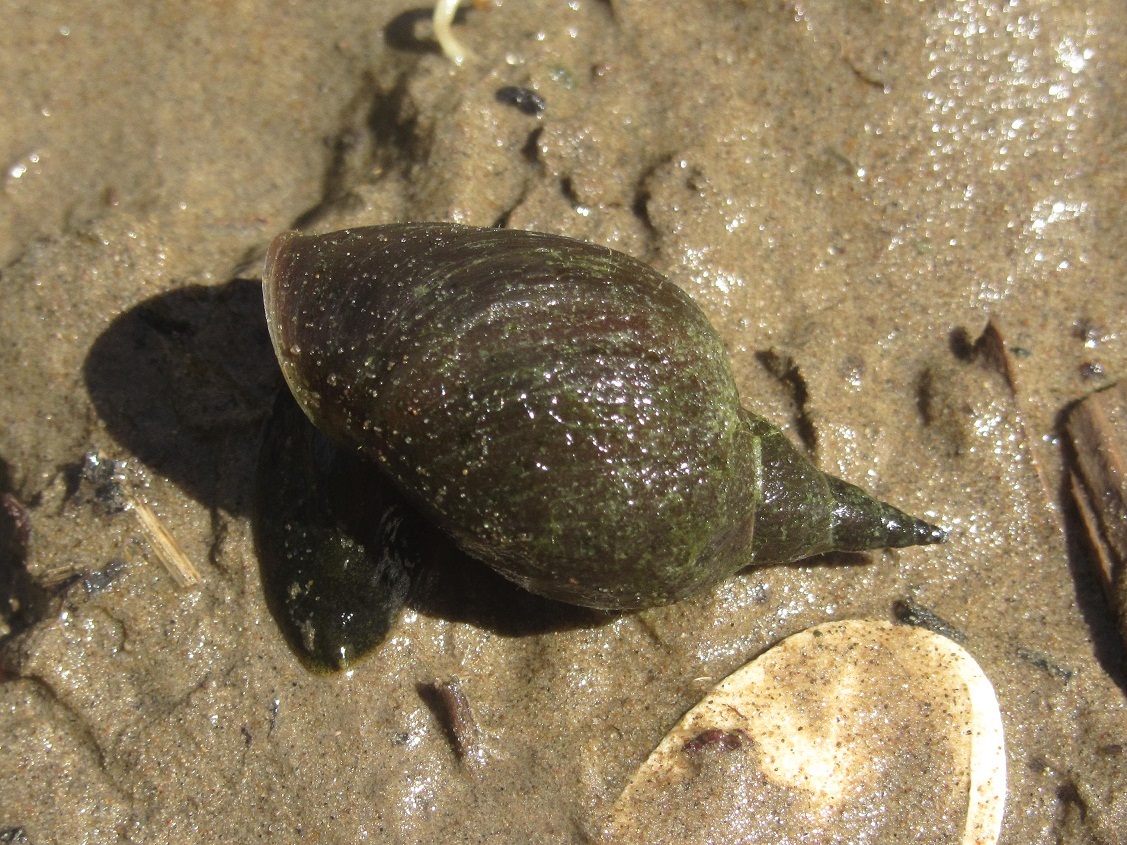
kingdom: Animalia
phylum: Mollusca
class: Gastropoda
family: Lymnaeidae
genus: Lymnaea
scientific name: Lymnaea stagnalis
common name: Great pond snail
